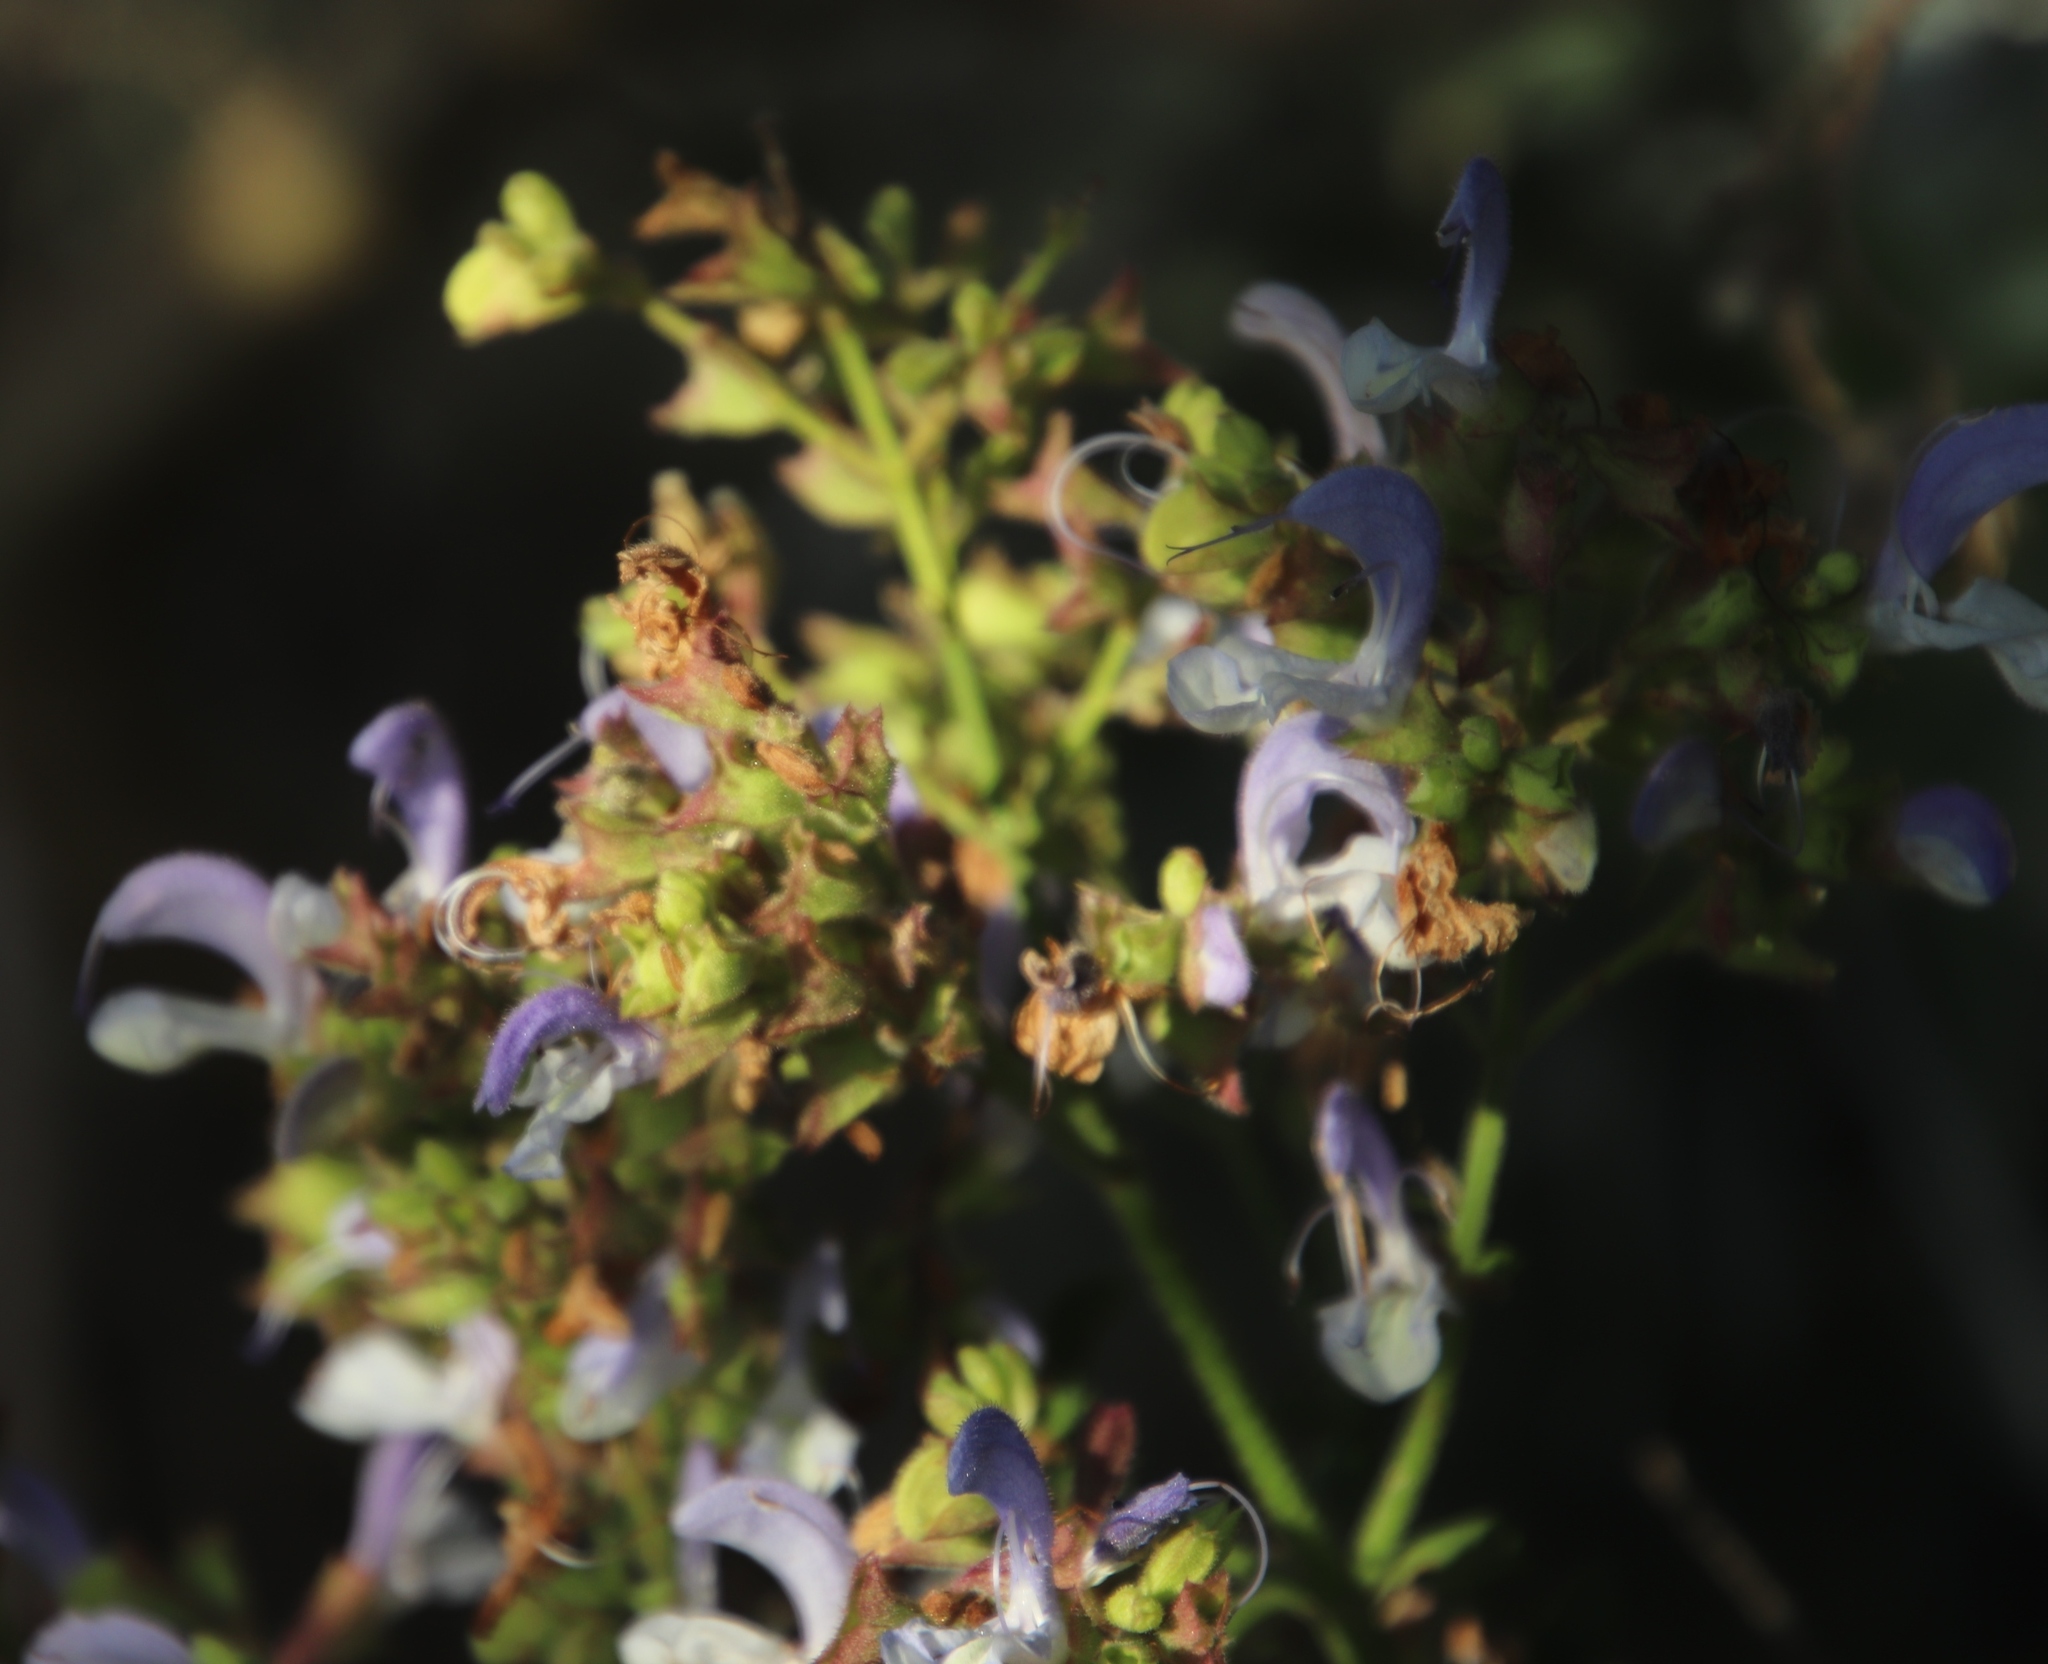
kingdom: Plantae
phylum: Tracheophyta
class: Magnoliopsida
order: Lamiales
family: Lamiaceae
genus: Salvia
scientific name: Salvia africana
